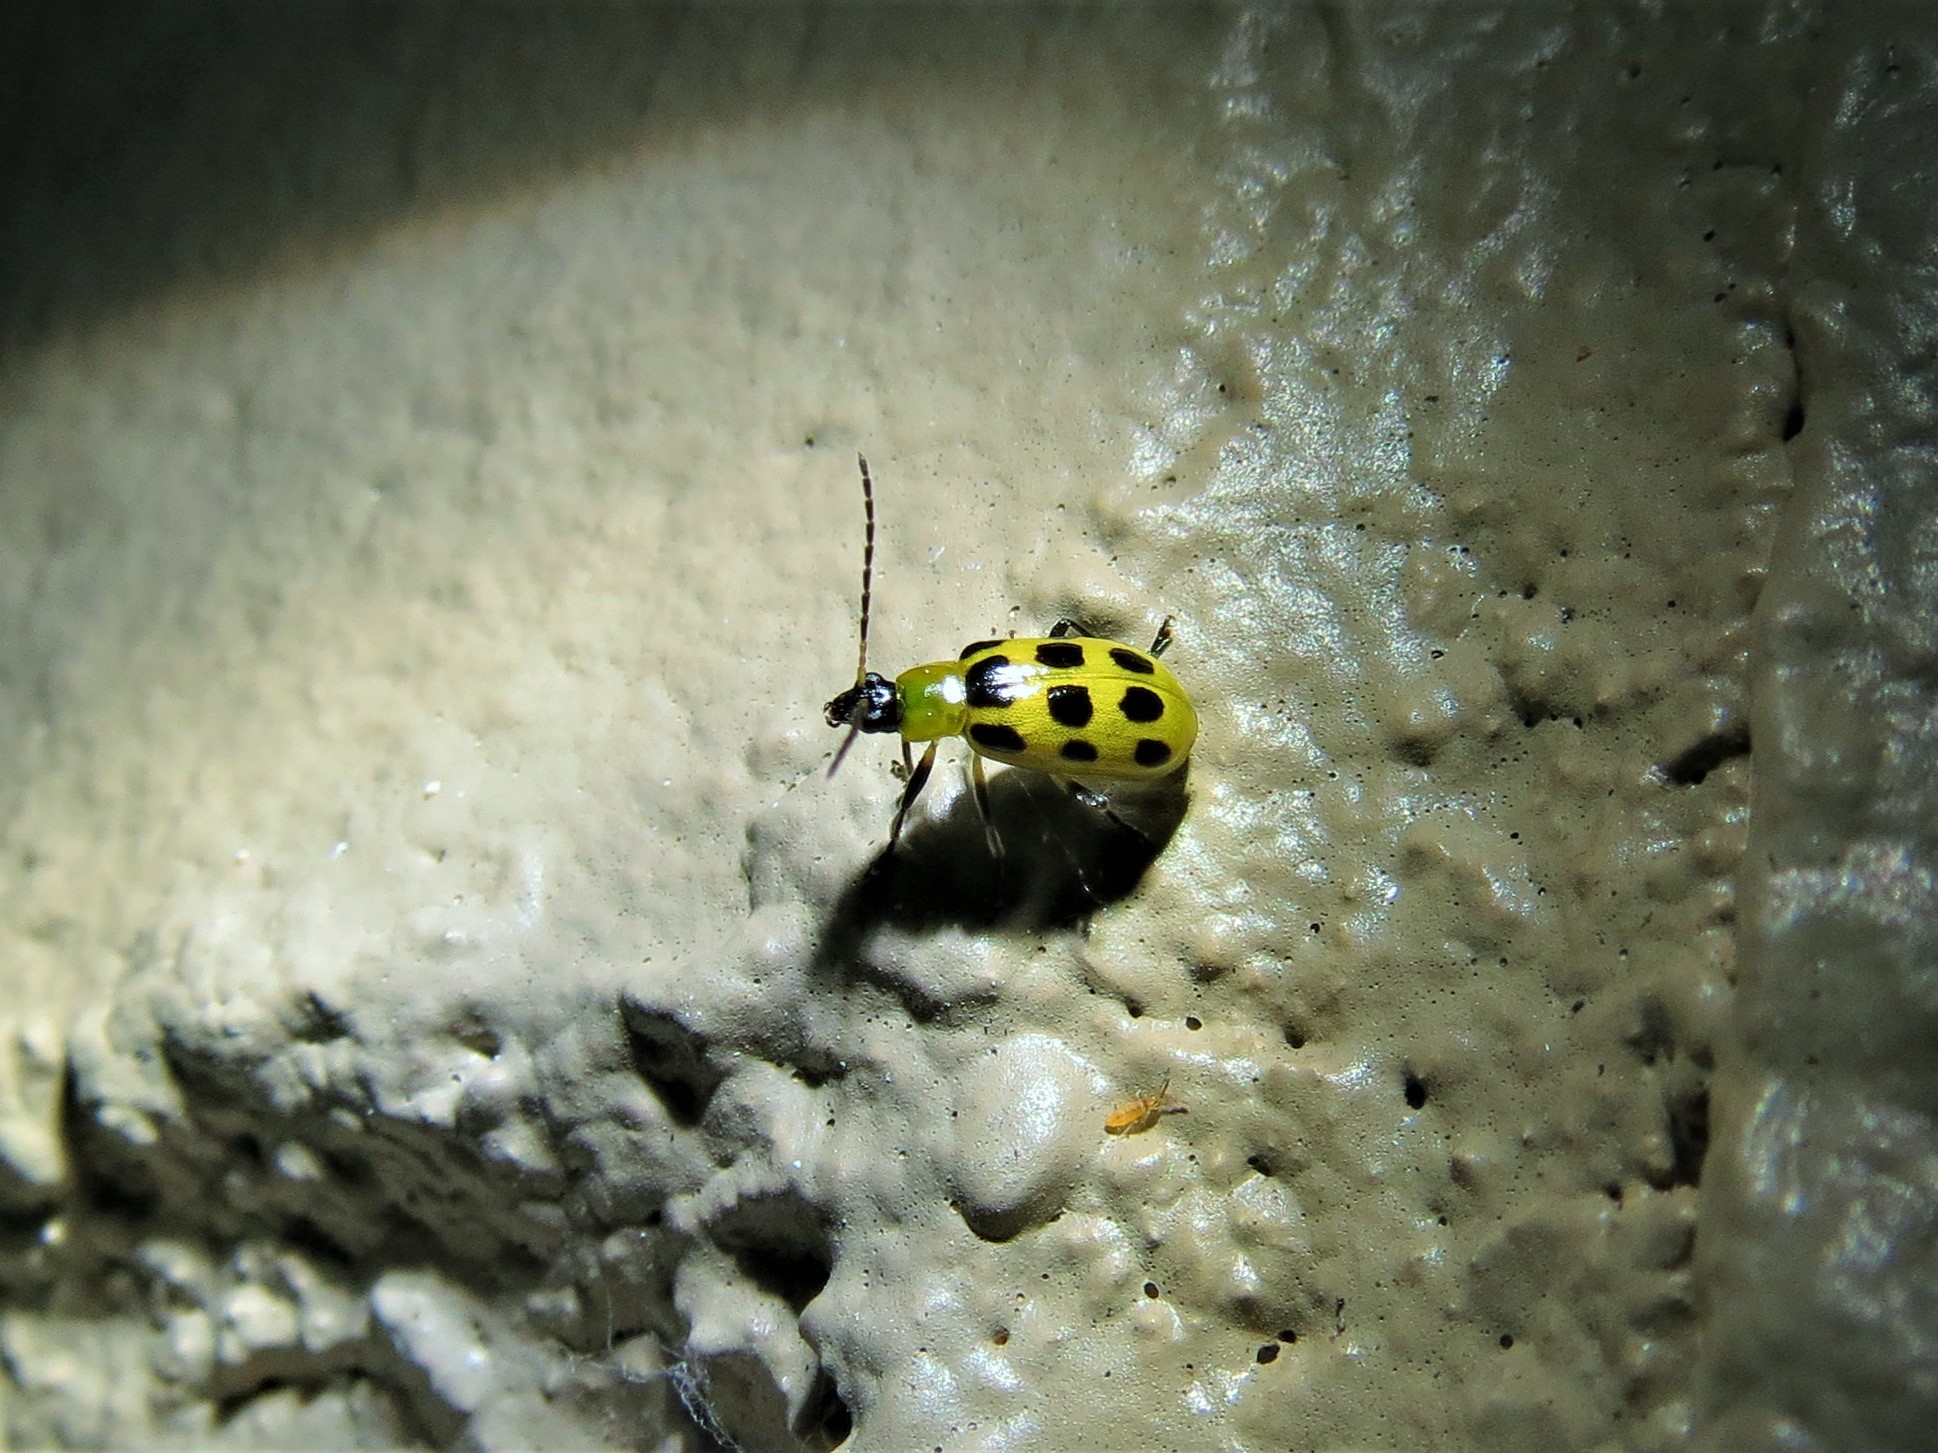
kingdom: Animalia
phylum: Arthropoda
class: Insecta
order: Coleoptera
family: Chrysomelidae
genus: Diabrotica
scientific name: Diabrotica undecimpunctata
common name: Spotted cucumber beetle
